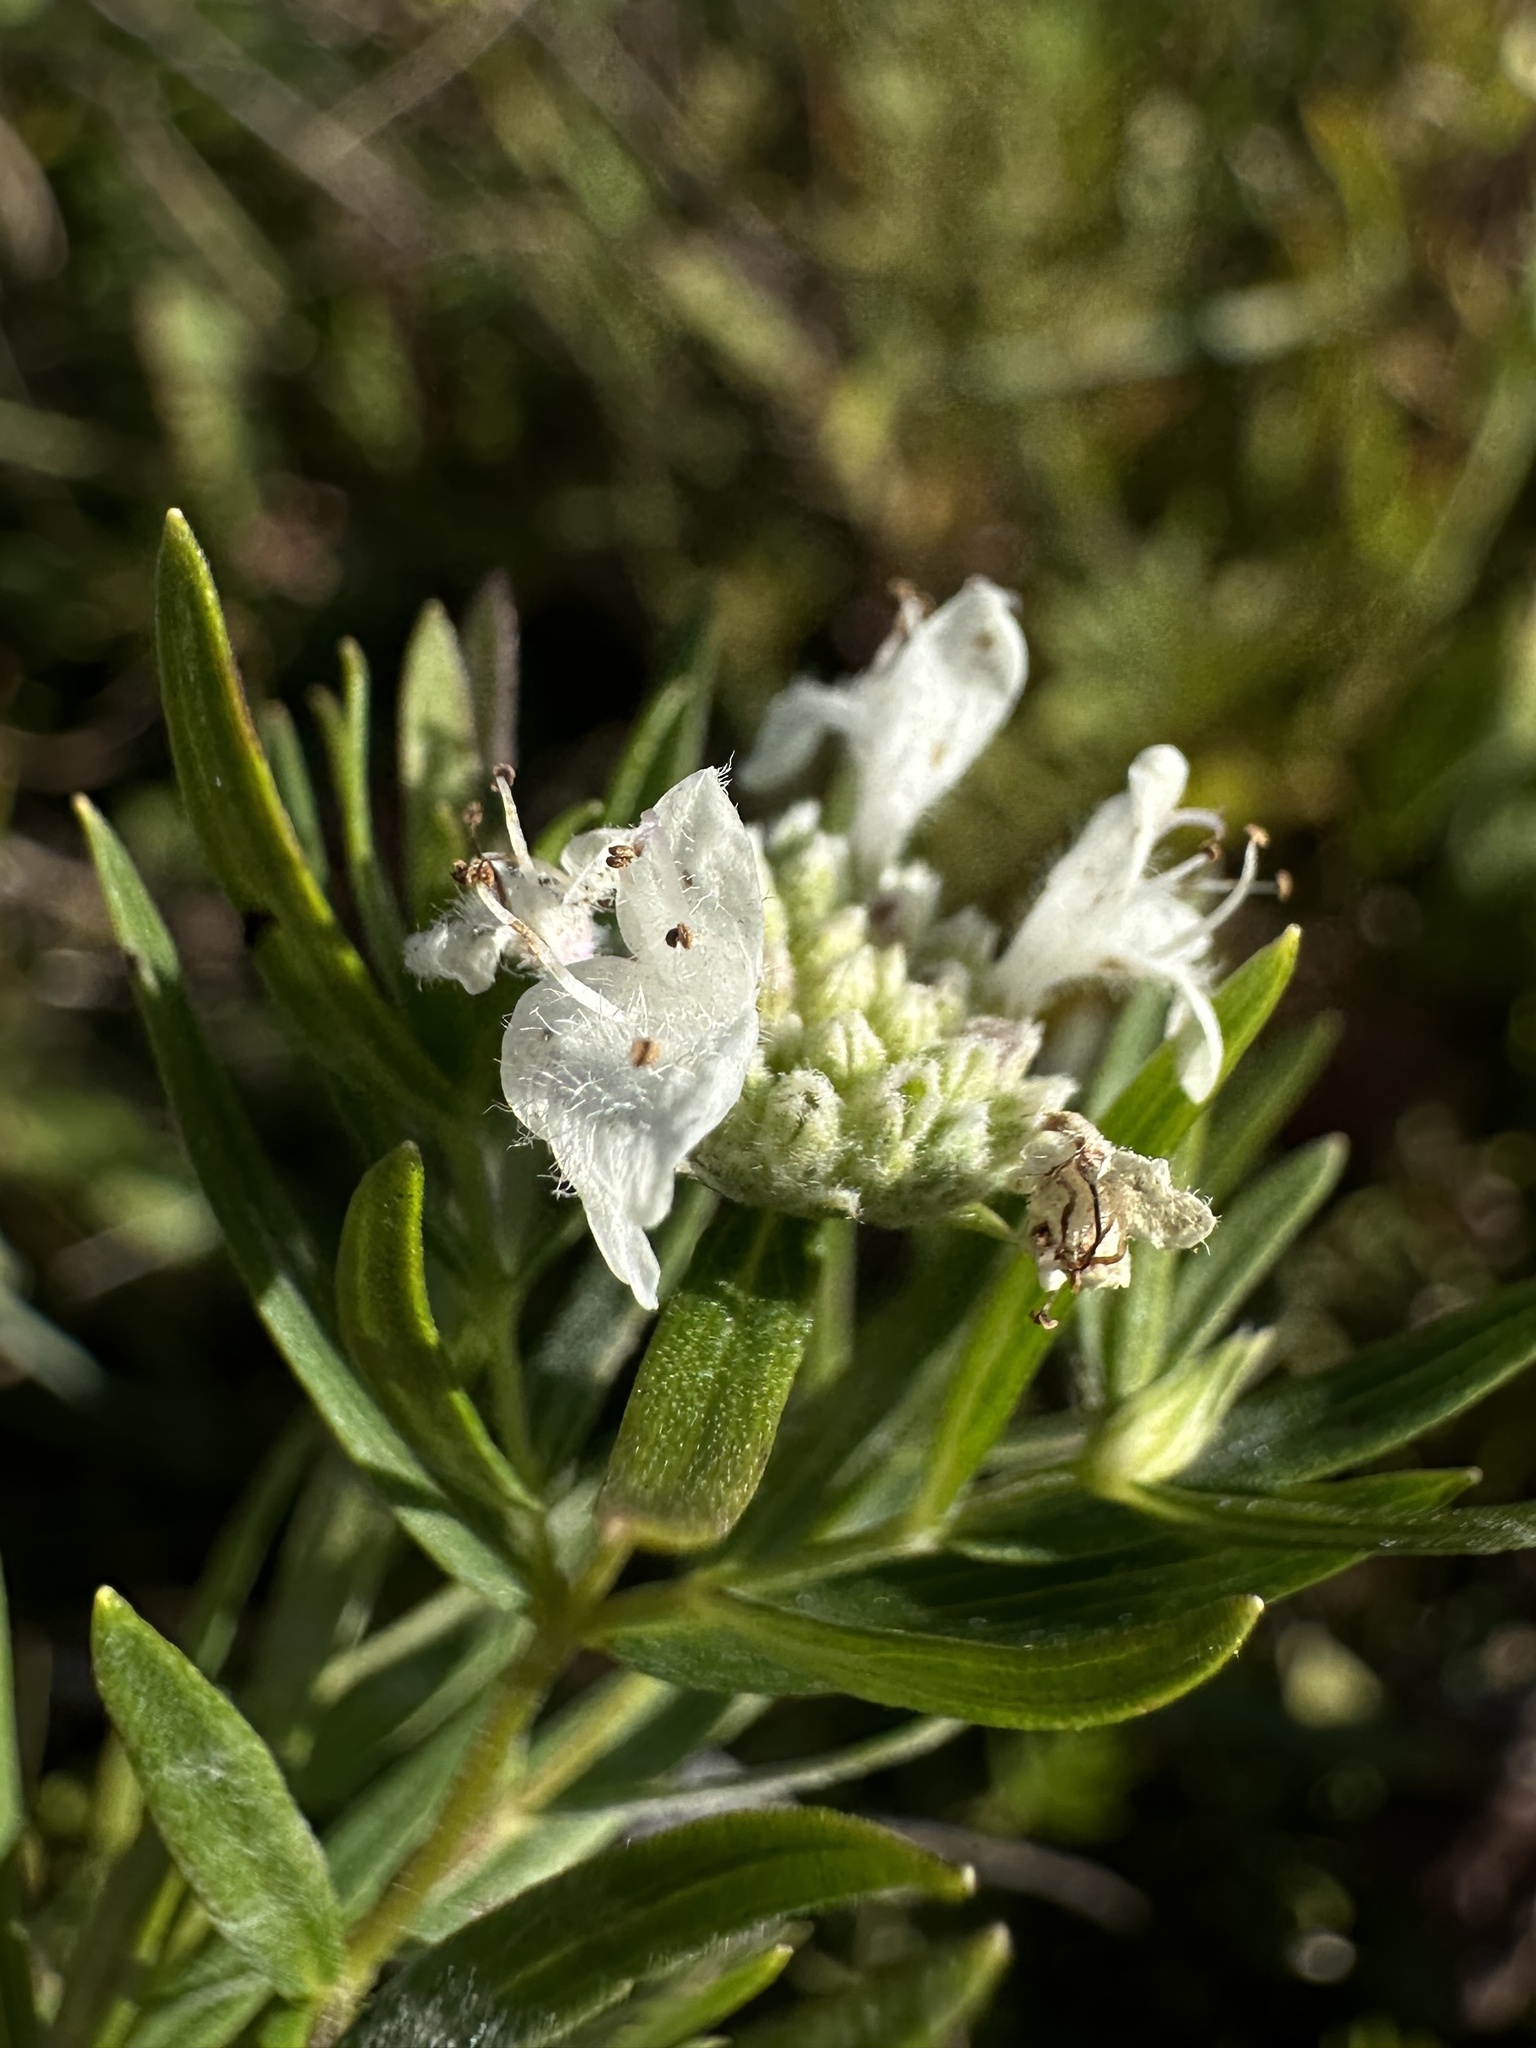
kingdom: Plantae
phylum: Tracheophyta
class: Magnoliopsida
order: Lamiales
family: Lamiaceae
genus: Pycnanthemum
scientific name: Pycnanthemum virginianum
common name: Virginia mountain-mint
